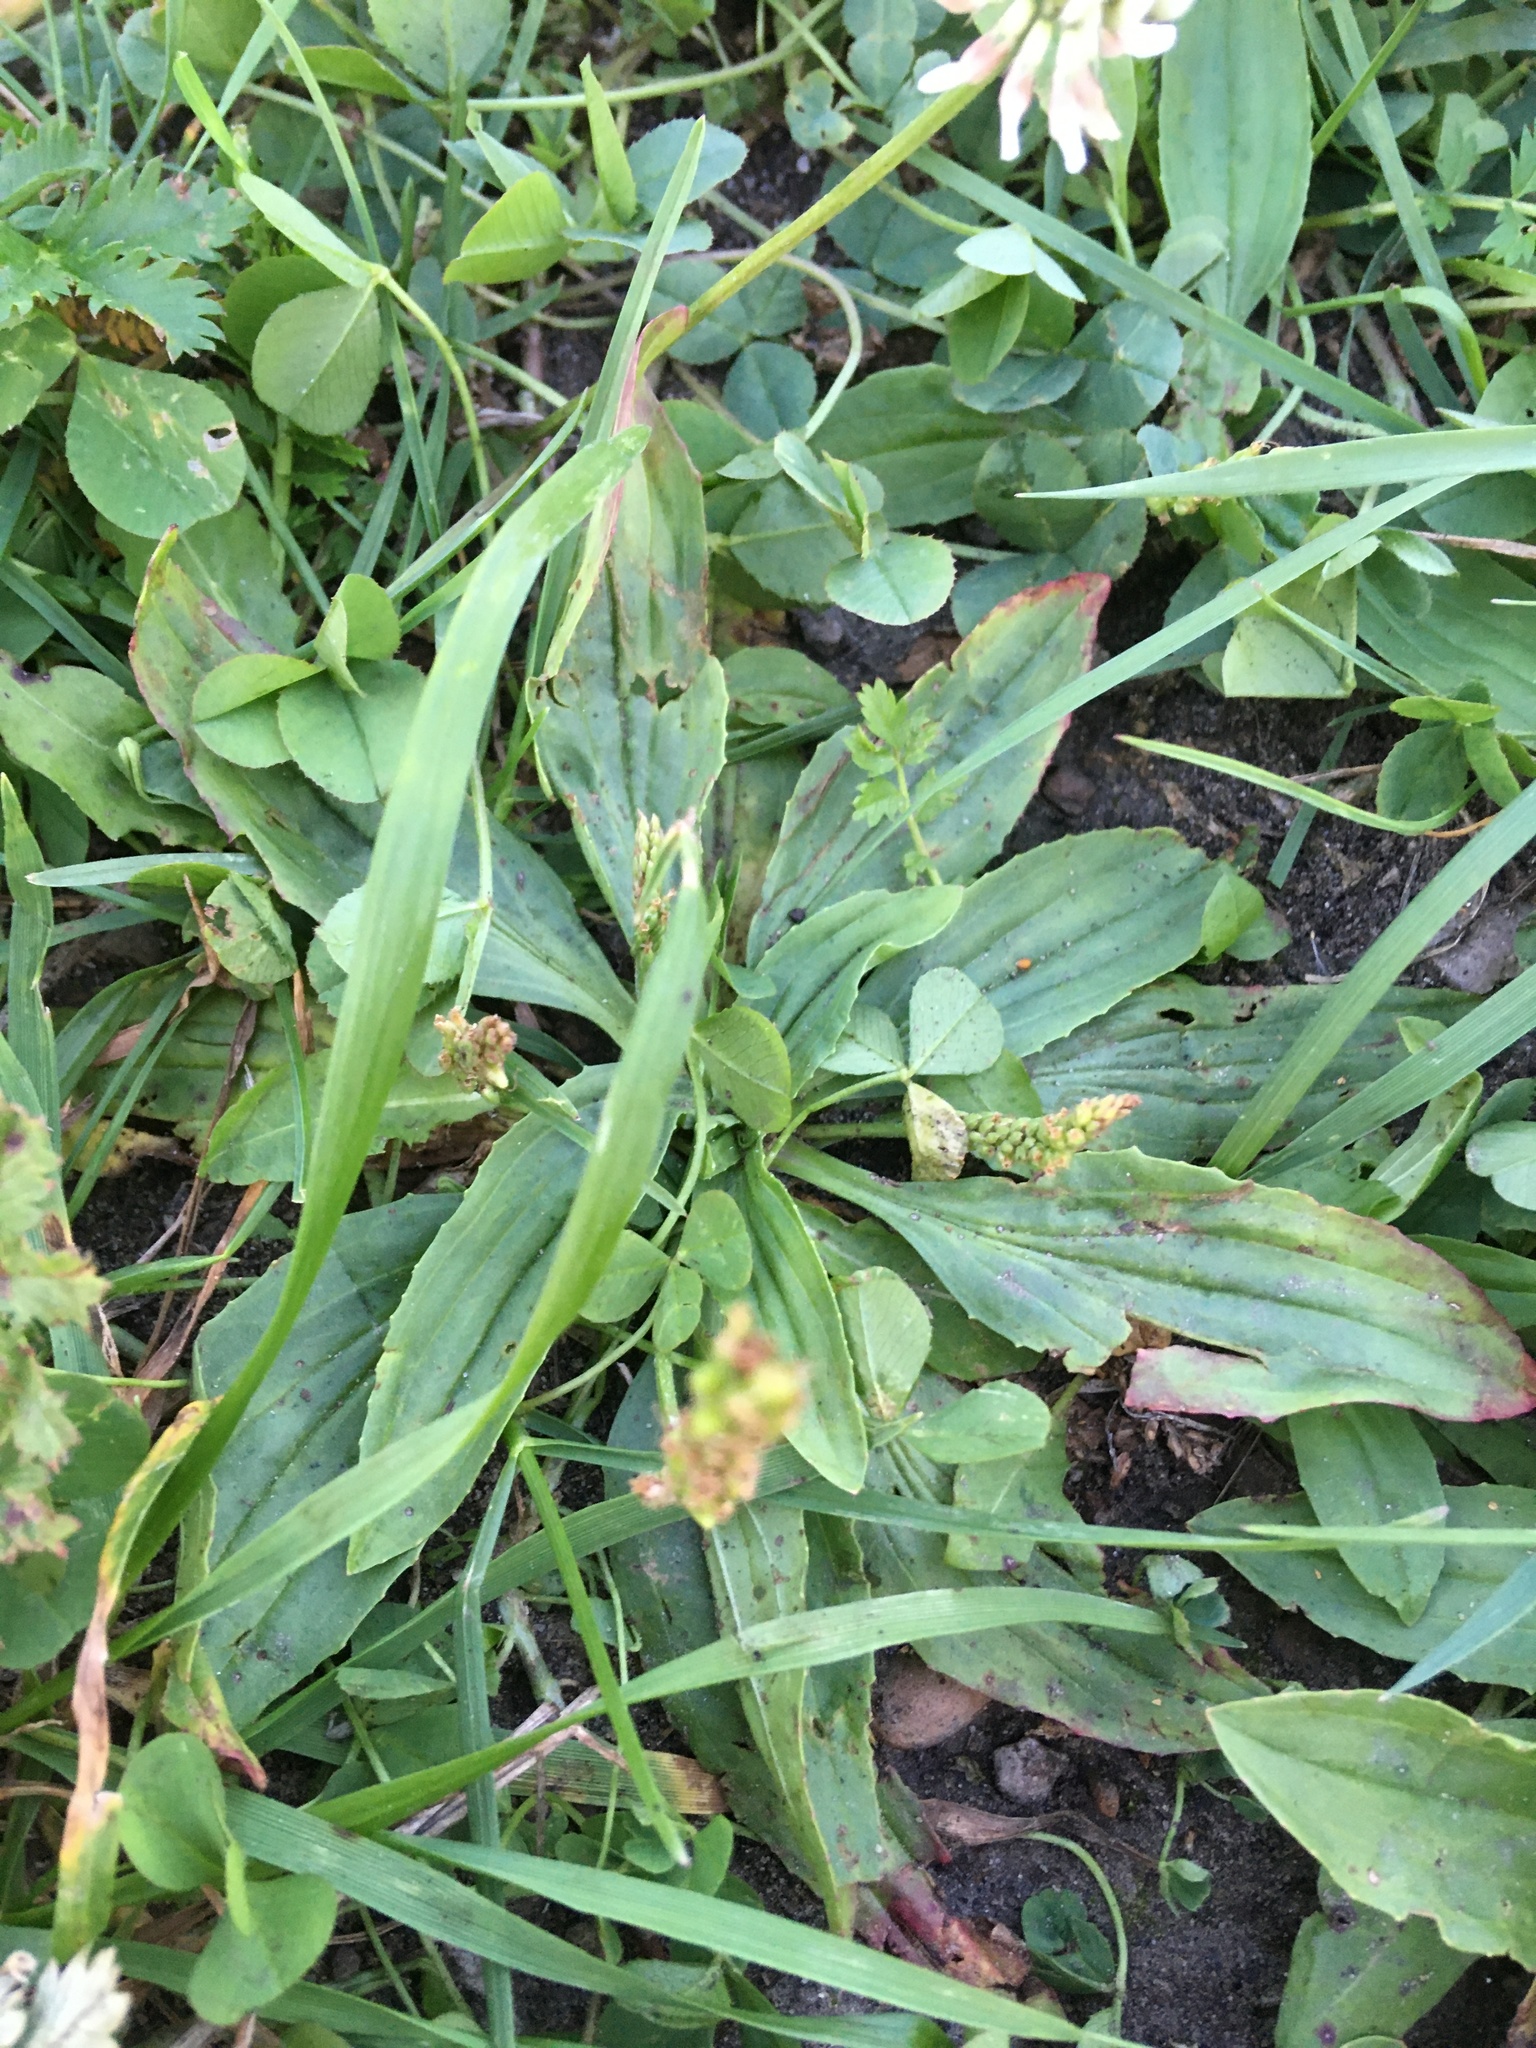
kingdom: Plantae
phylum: Tracheophyta
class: Magnoliopsida
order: Lamiales
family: Plantaginaceae
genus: Plantago
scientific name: Plantago depressa
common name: Depressed plantain
